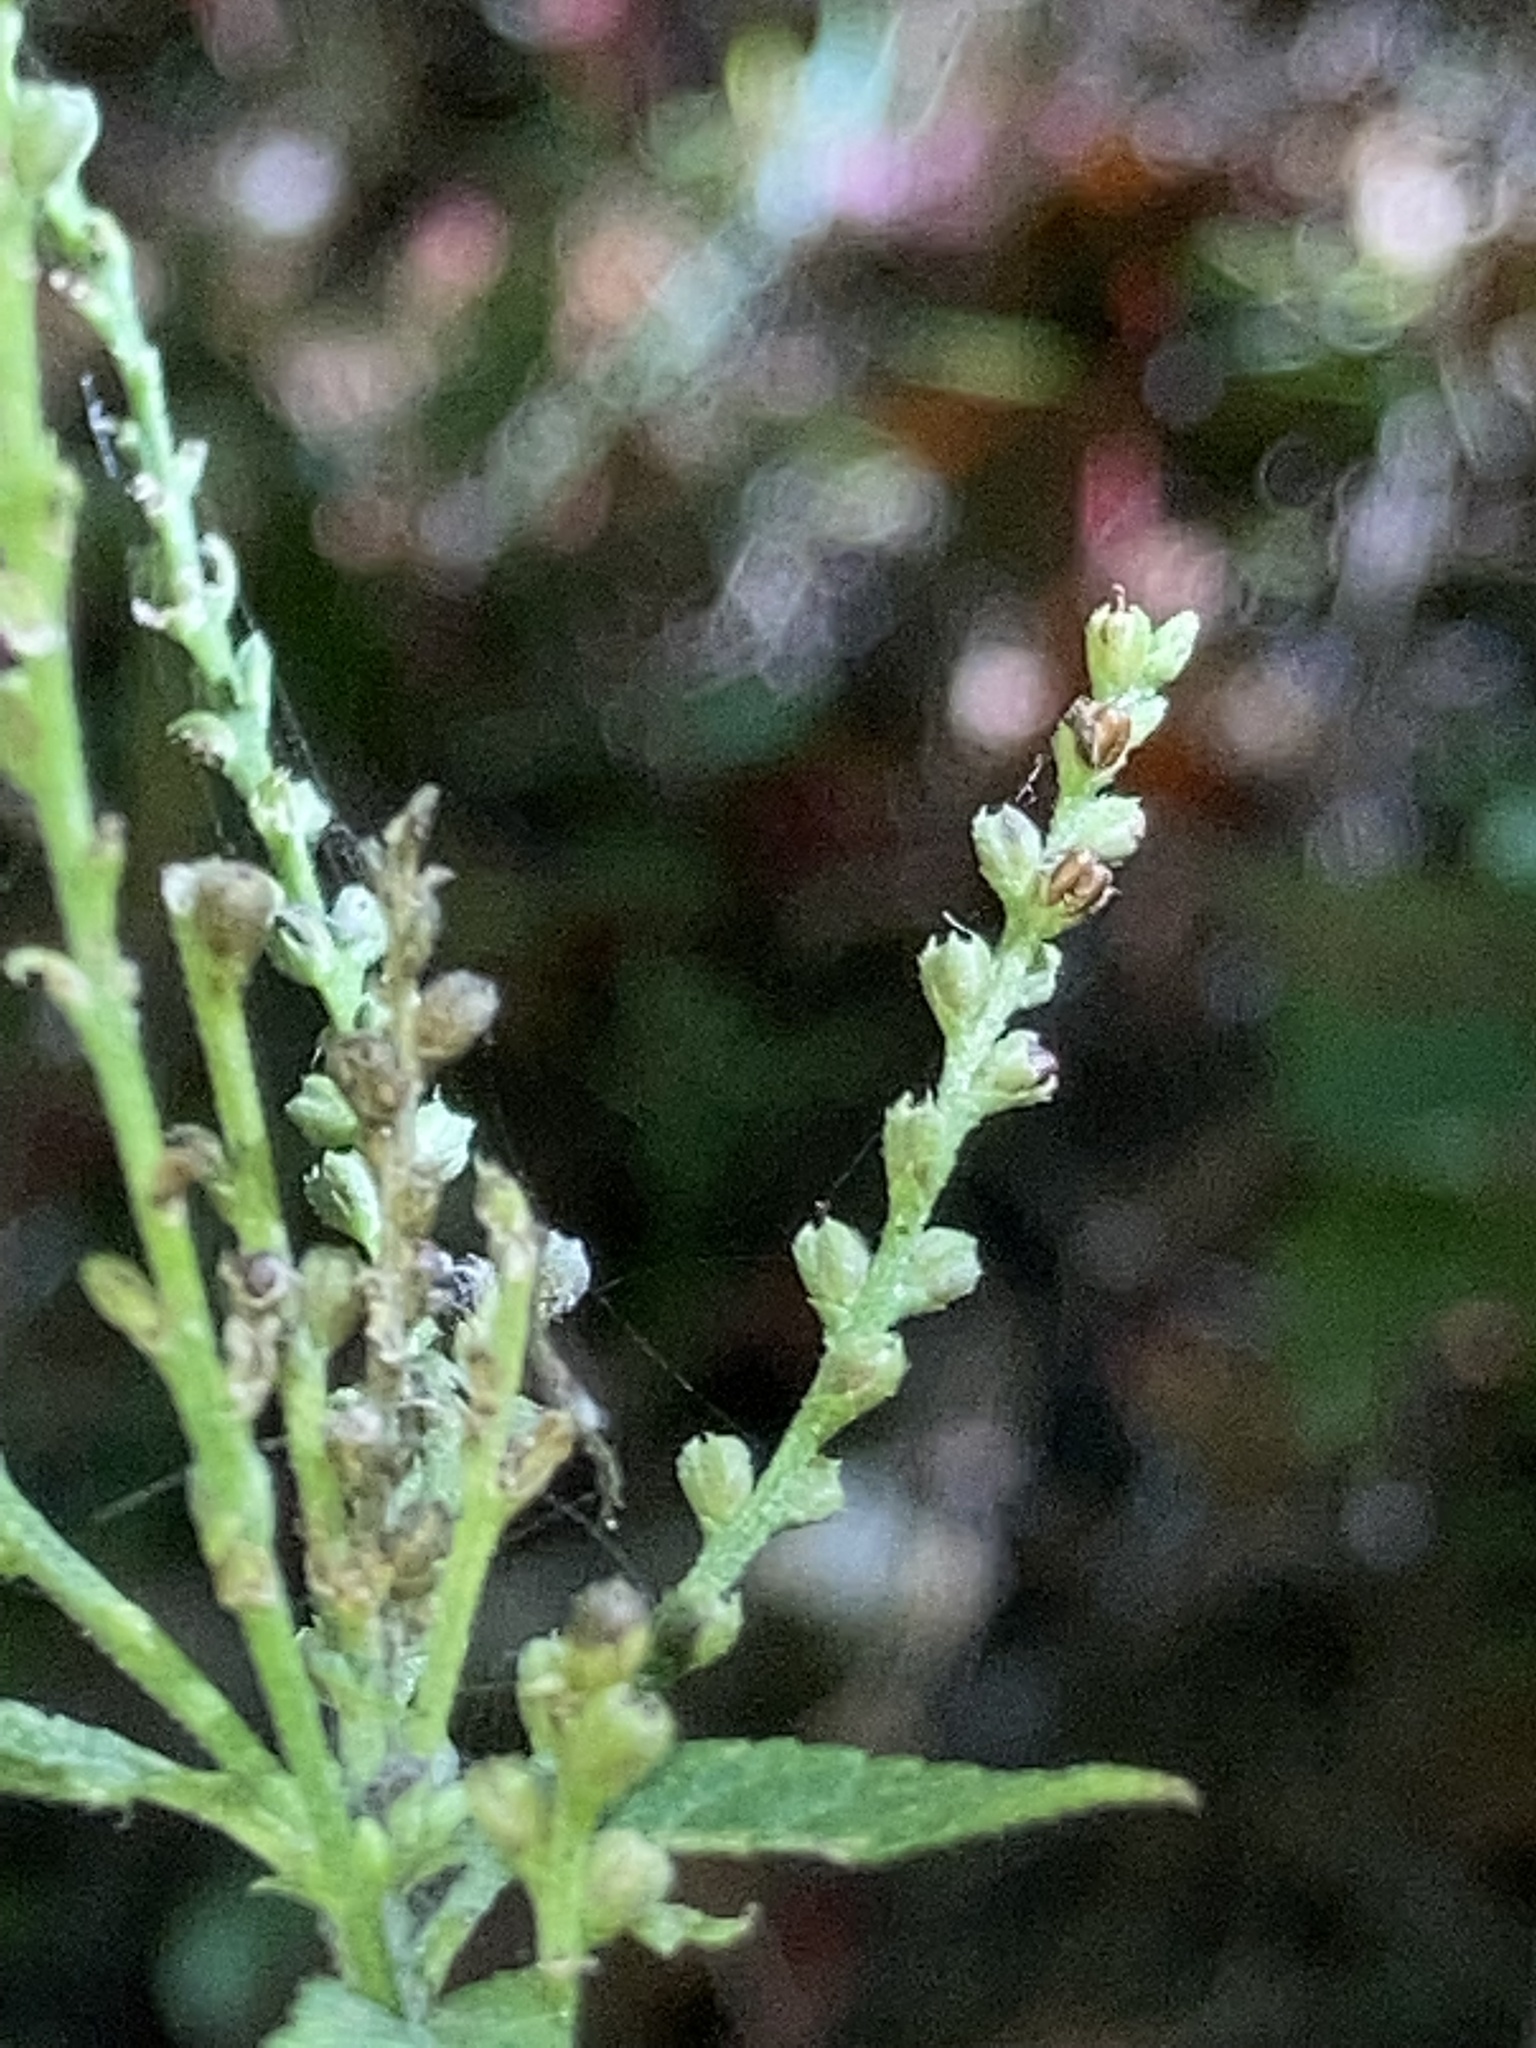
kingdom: Plantae
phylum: Tracheophyta
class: Magnoliopsida
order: Lamiales
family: Verbenaceae
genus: Verbena
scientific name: Verbena urticifolia
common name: Nettle-leaved vervain
